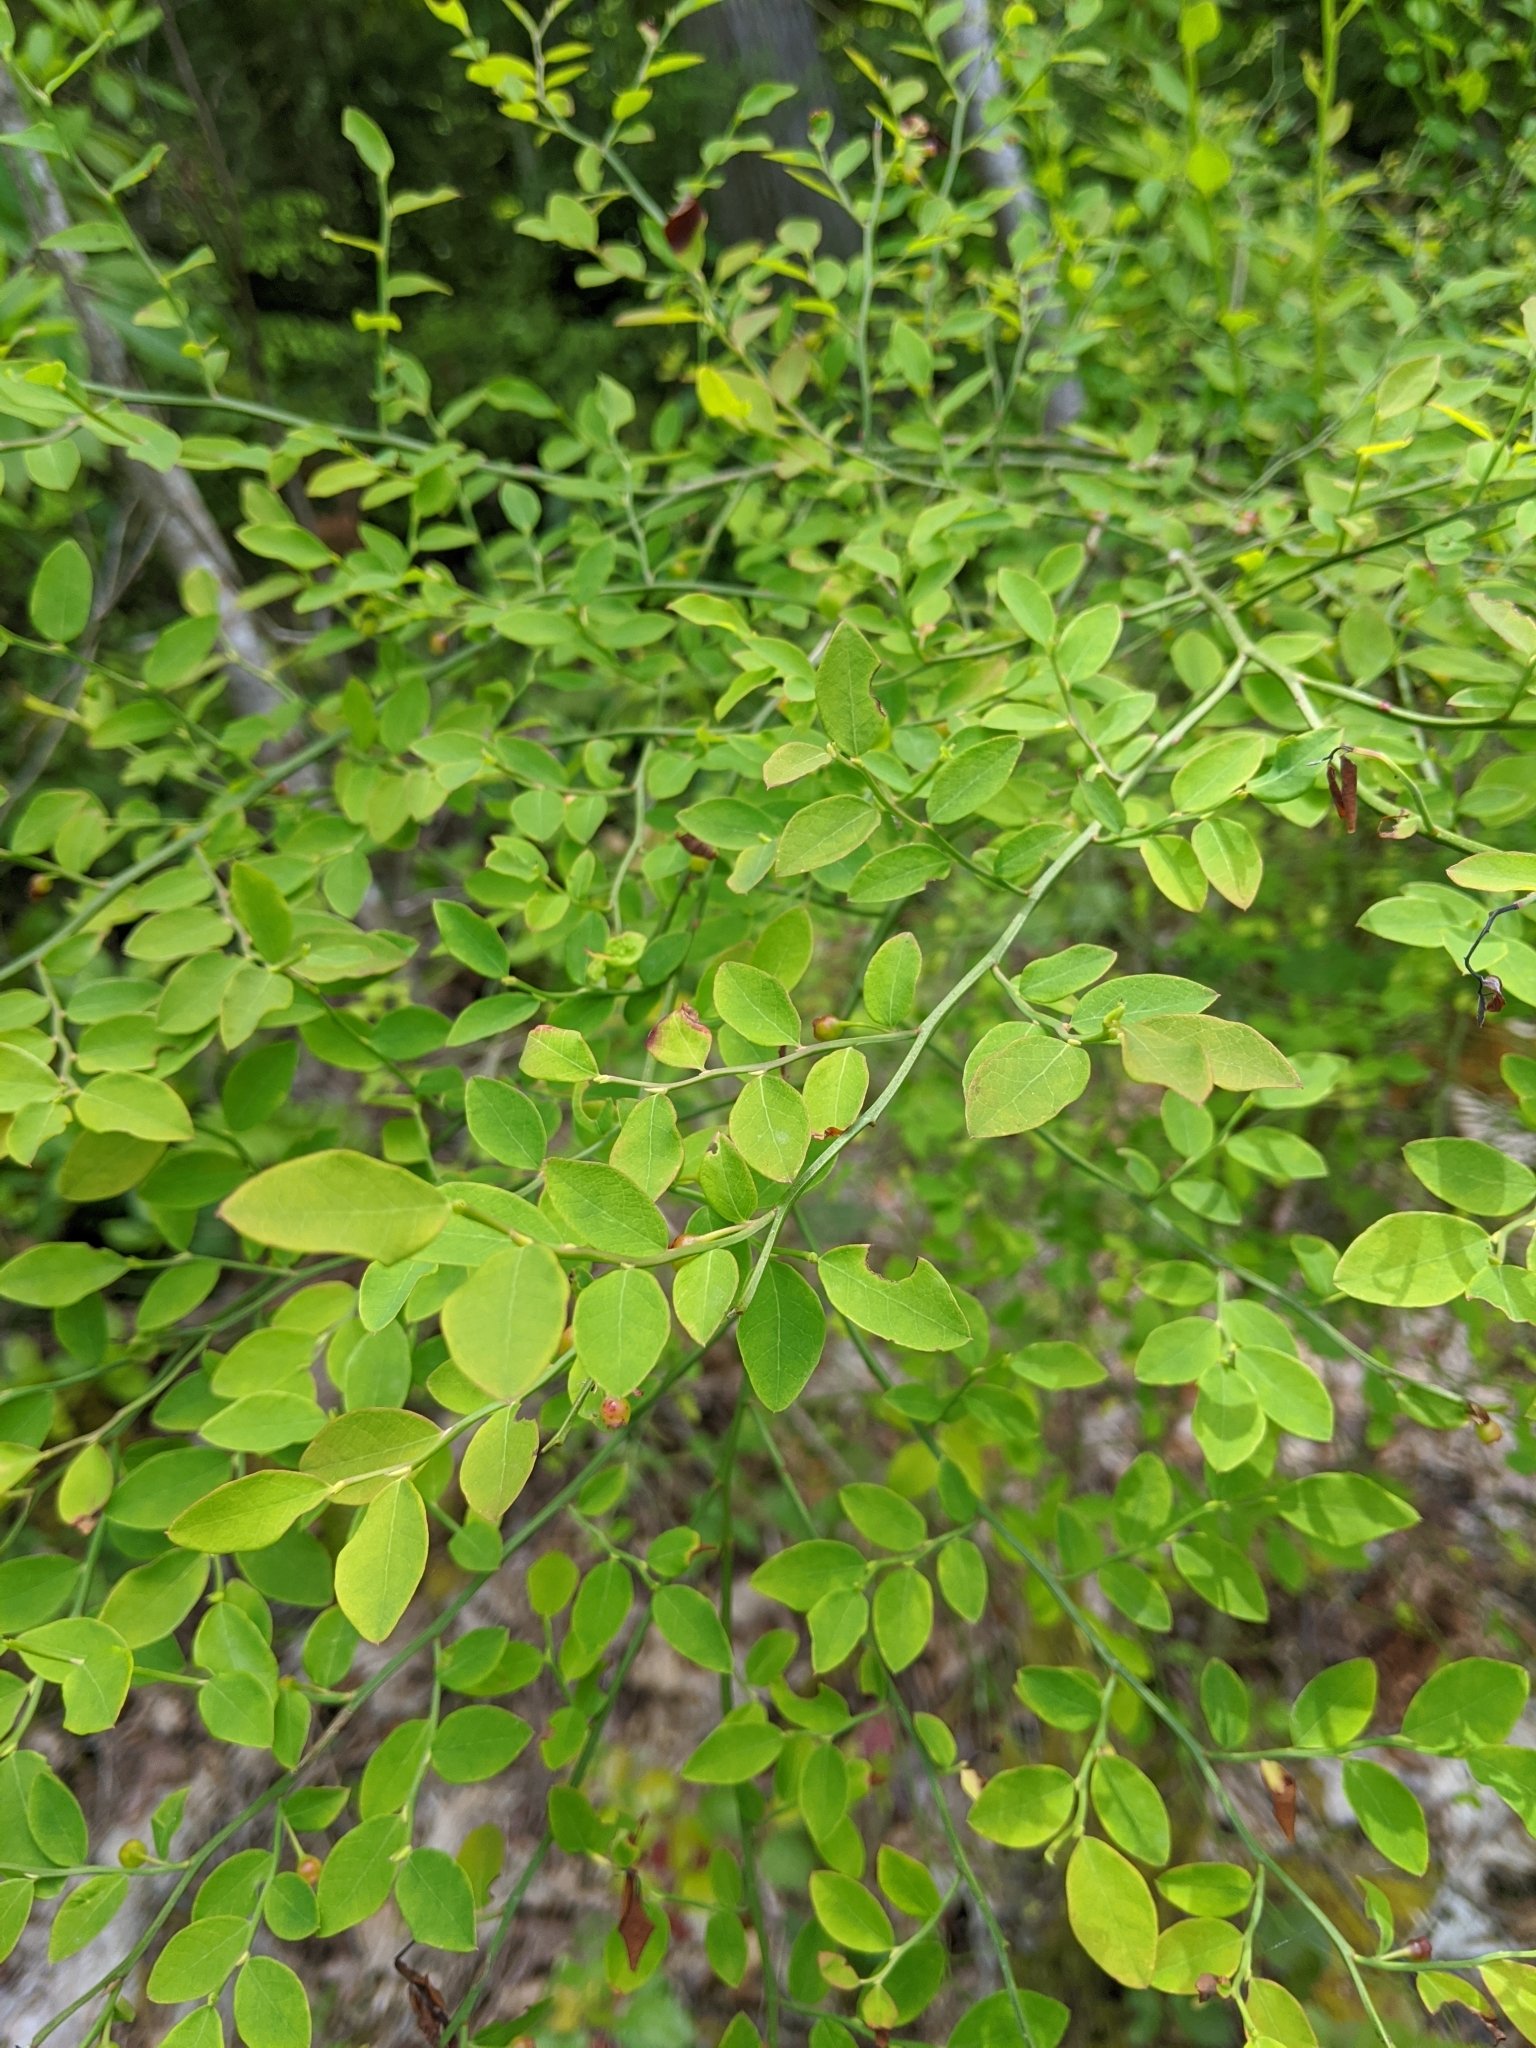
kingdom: Plantae
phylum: Tracheophyta
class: Magnoliopsida
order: Ericales
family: Ericaceae
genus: Vaccinium
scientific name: Vaccinium parvifolium
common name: Red-huckleberry
